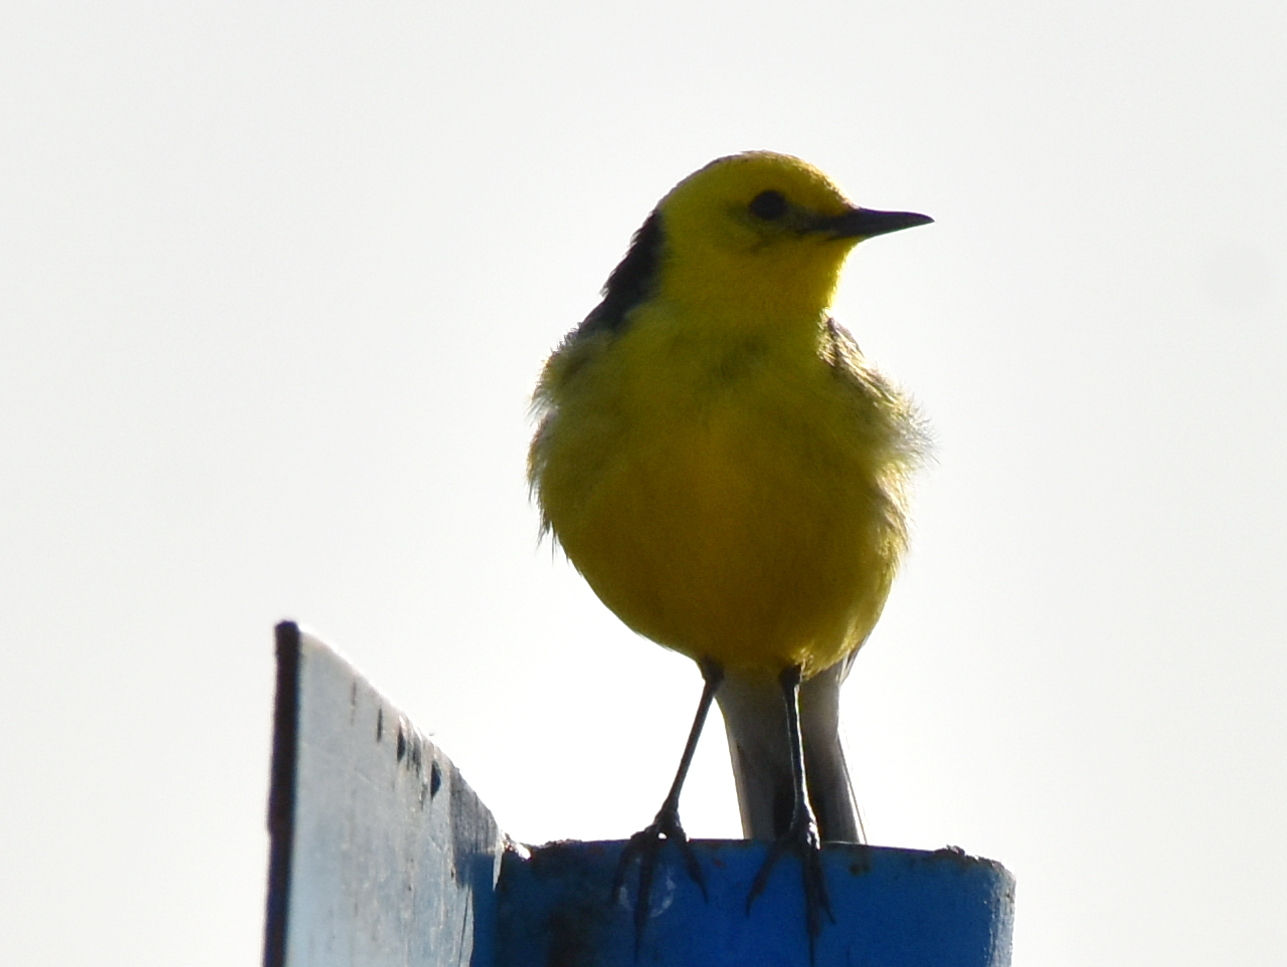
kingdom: Animalia
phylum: Chordata
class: Aves
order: Passeriformes
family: Motacillidae
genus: Motacilla
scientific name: Motacilla citreola
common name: Citrine wagtail
